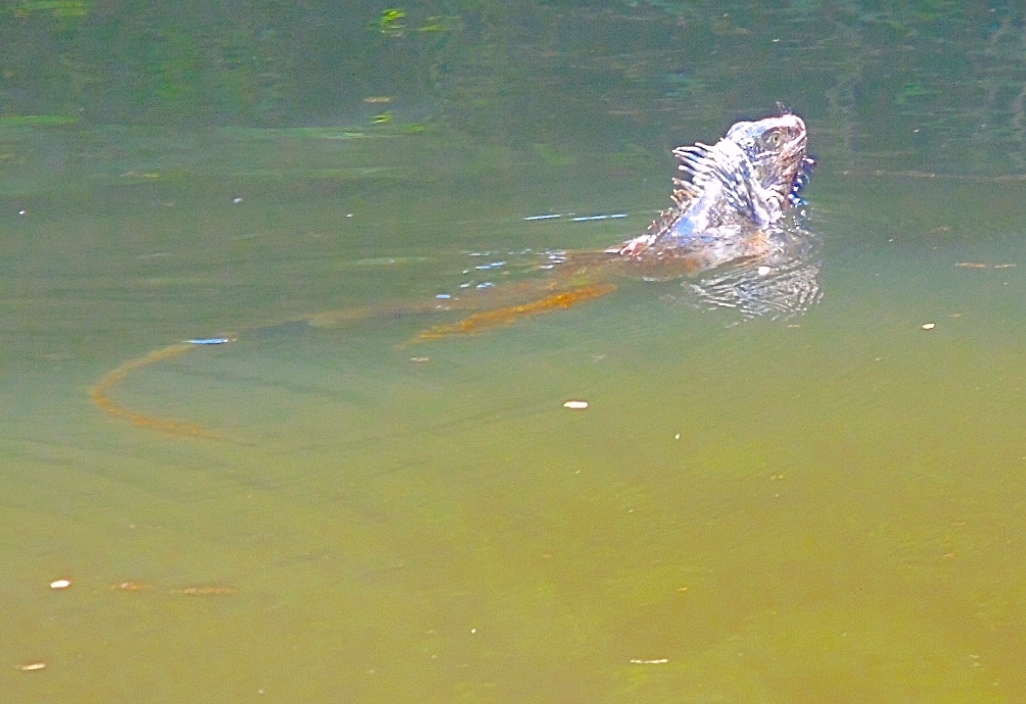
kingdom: Animalia
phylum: Chordata
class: Squamata
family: Iguanidae
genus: Iguana
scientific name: Iguana iguana
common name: Green iguana
